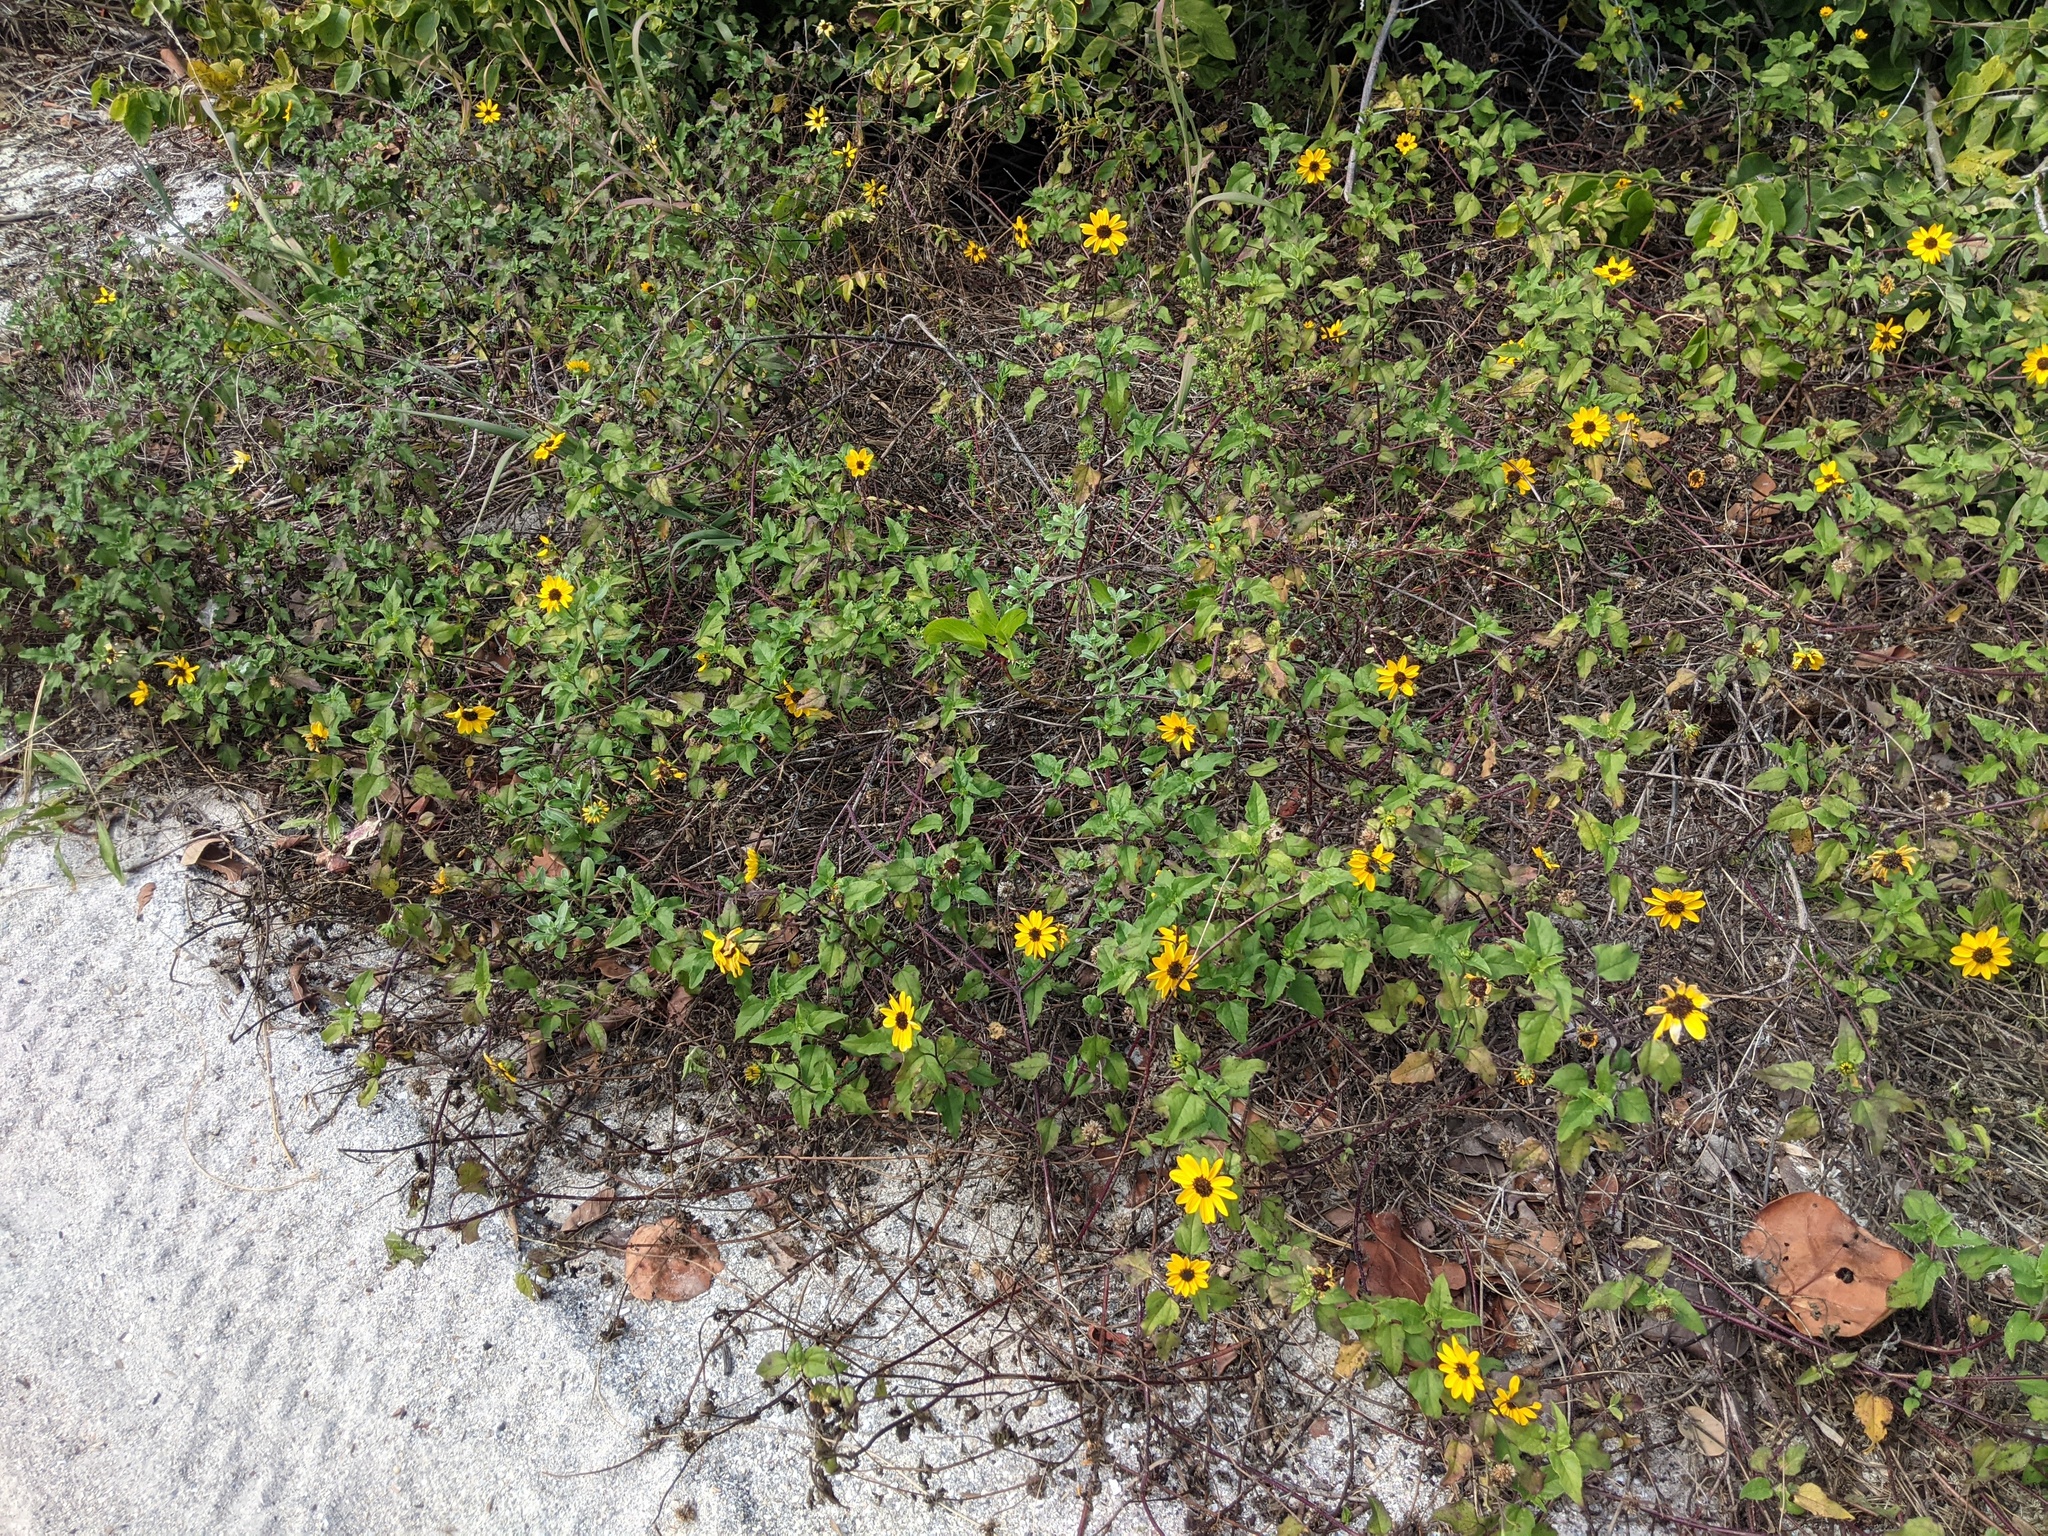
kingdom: Plantae
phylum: Tracheophyta
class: Magnoliopsida
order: Asterales
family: Asteraceae
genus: Helianthus
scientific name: Helianthus debilis
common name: Weak sunflower
